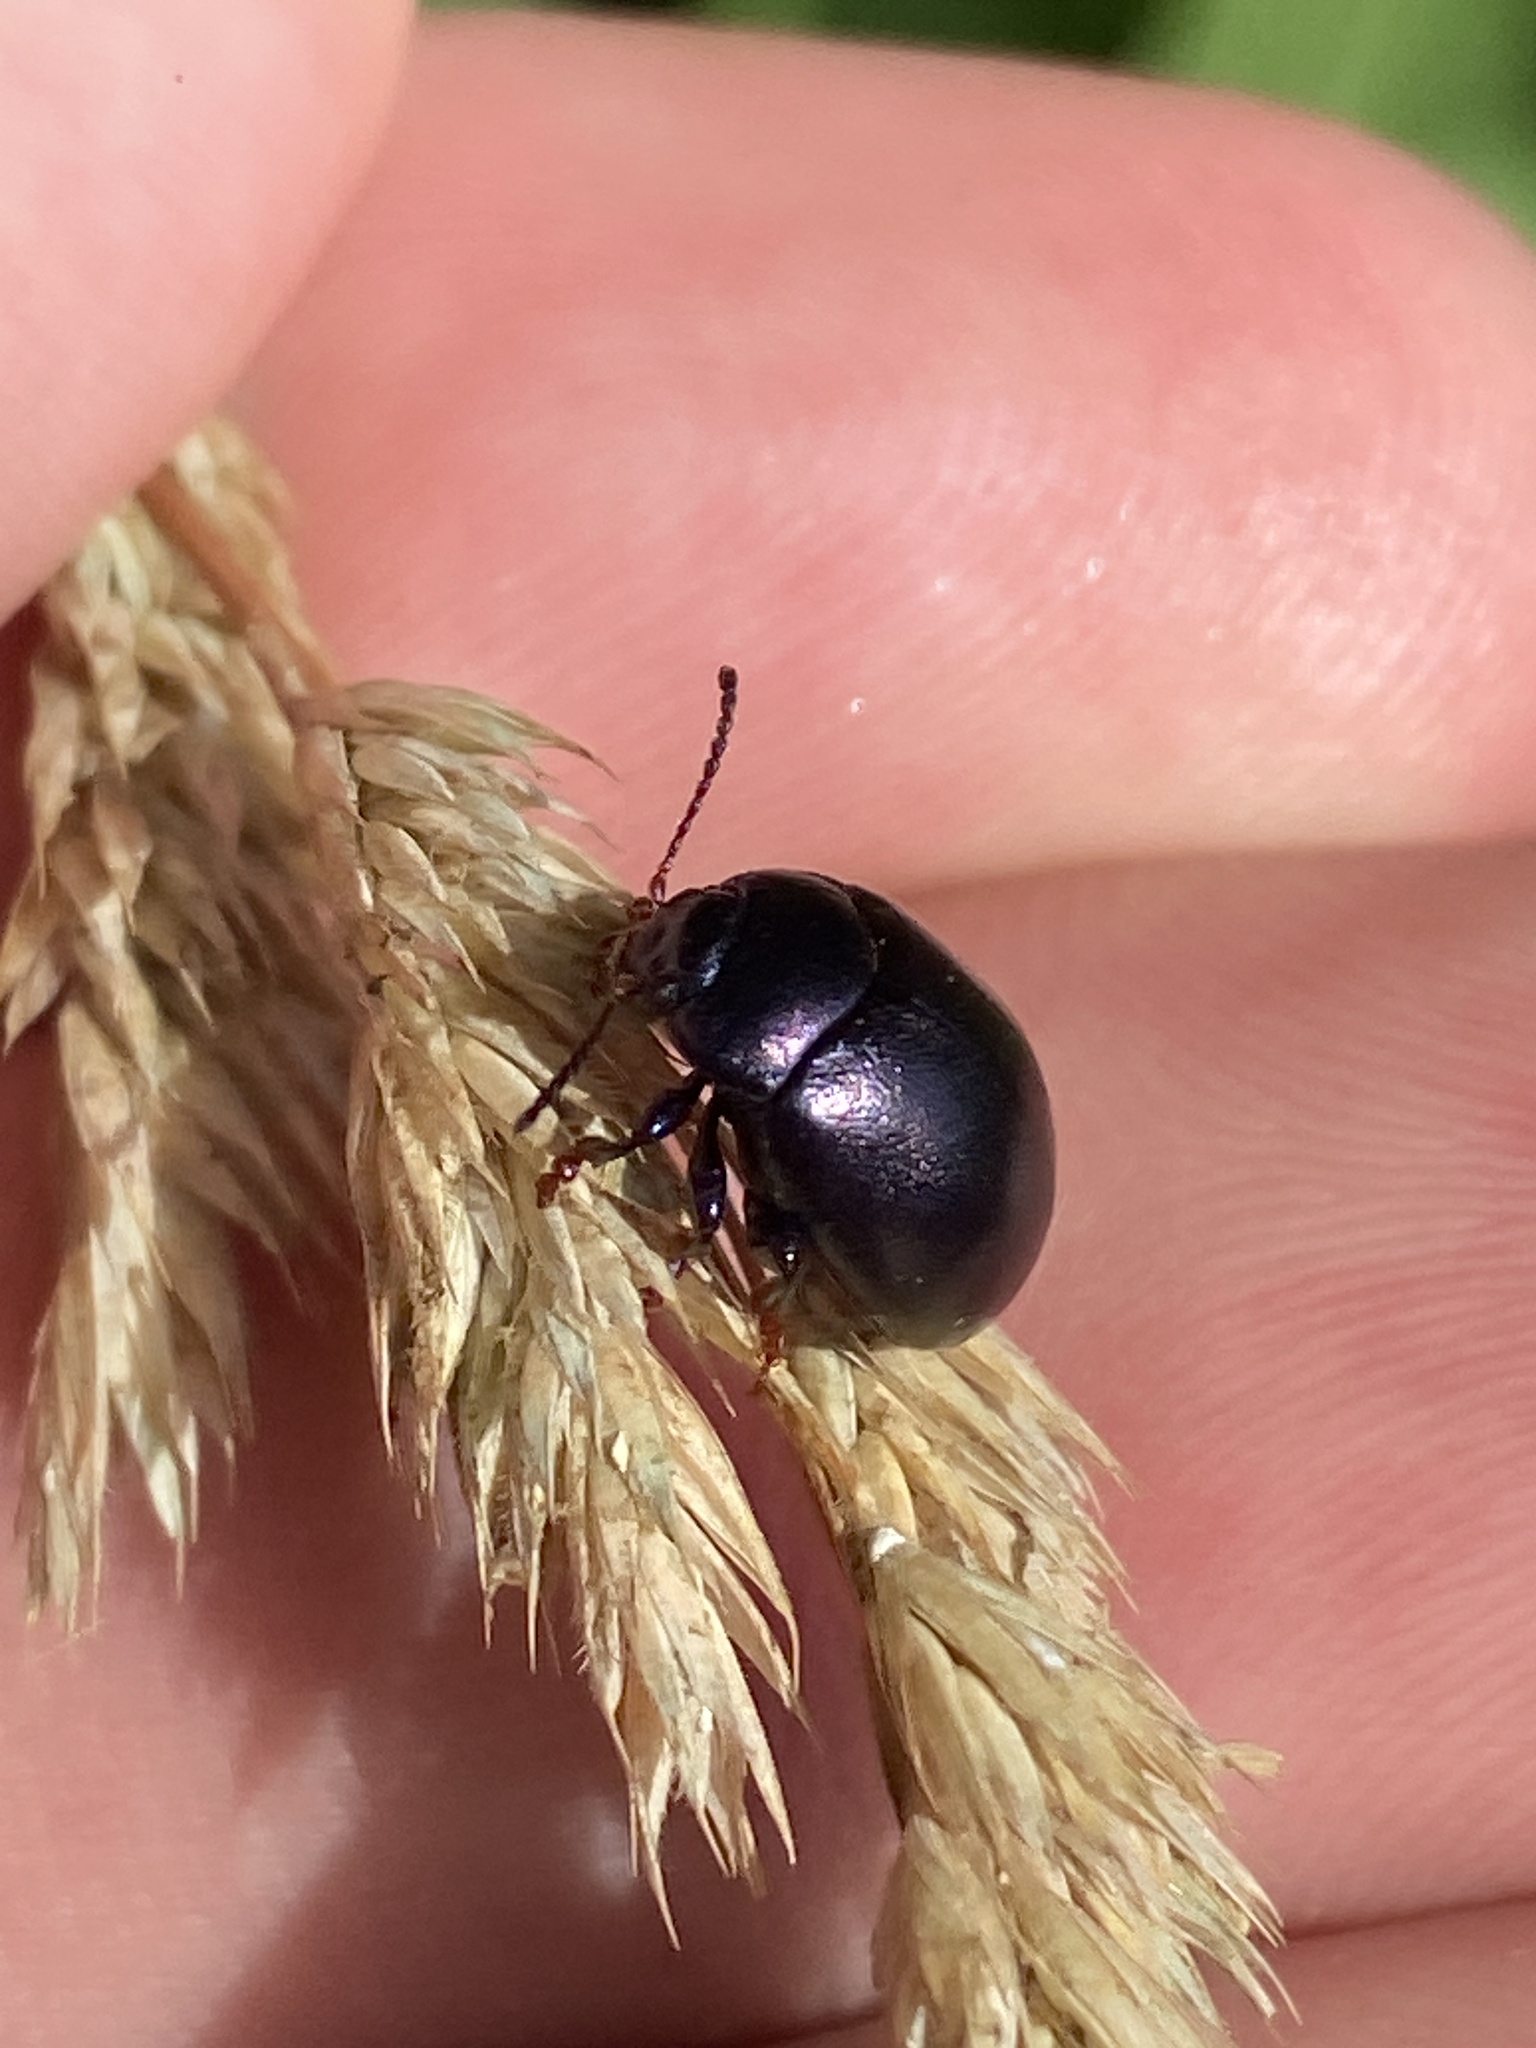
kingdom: Animalia
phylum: Arthropoda
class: Insecta
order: Coleoptera
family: Chrysomelidae
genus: Chrysolina
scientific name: Chrysolina sturmi
